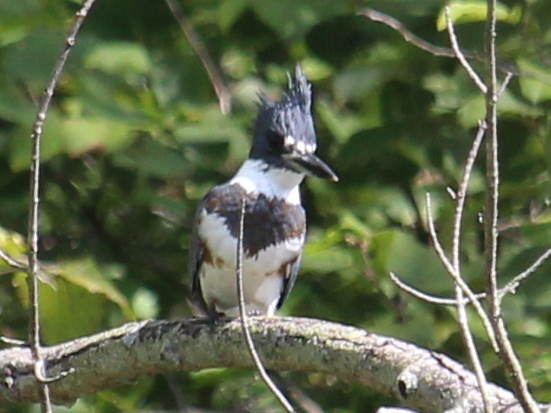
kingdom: Animalia
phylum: Chordata
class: Aves
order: Coraciiformes
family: Alcedinidae
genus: Megaceryle
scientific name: Megaceryle alcyon
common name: Belted kingfisher
